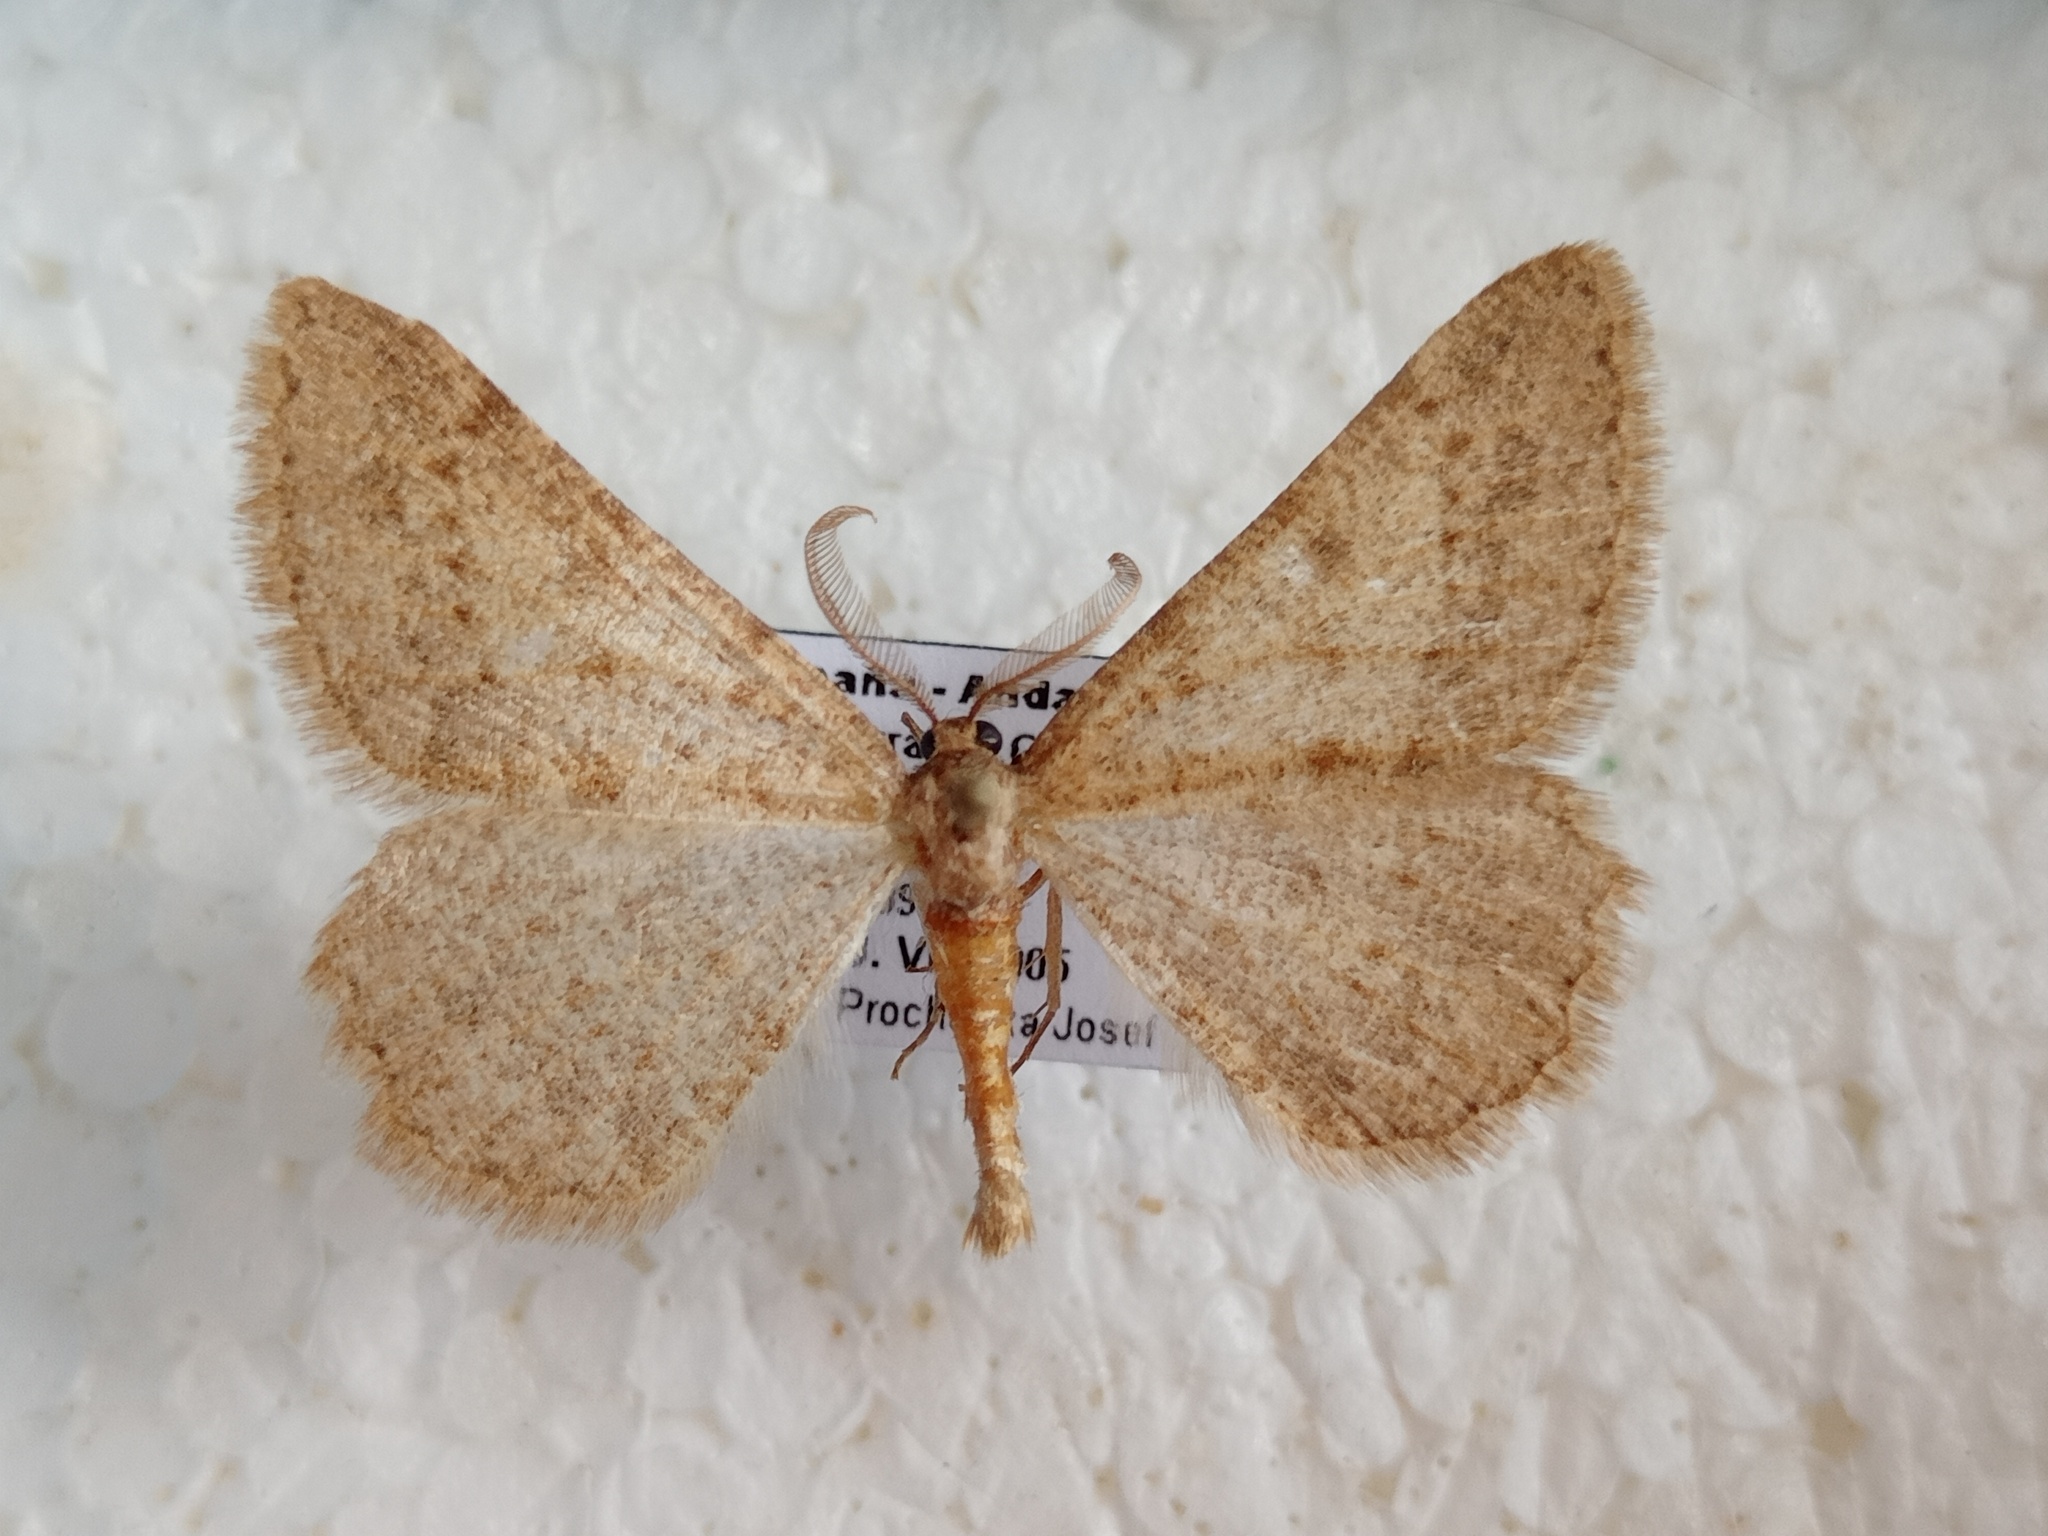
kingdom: Animalia
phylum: Arthropoda
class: Insecta
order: Lepidoptera
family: Geometridae
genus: Zernyia
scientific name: Zernyia granataria
